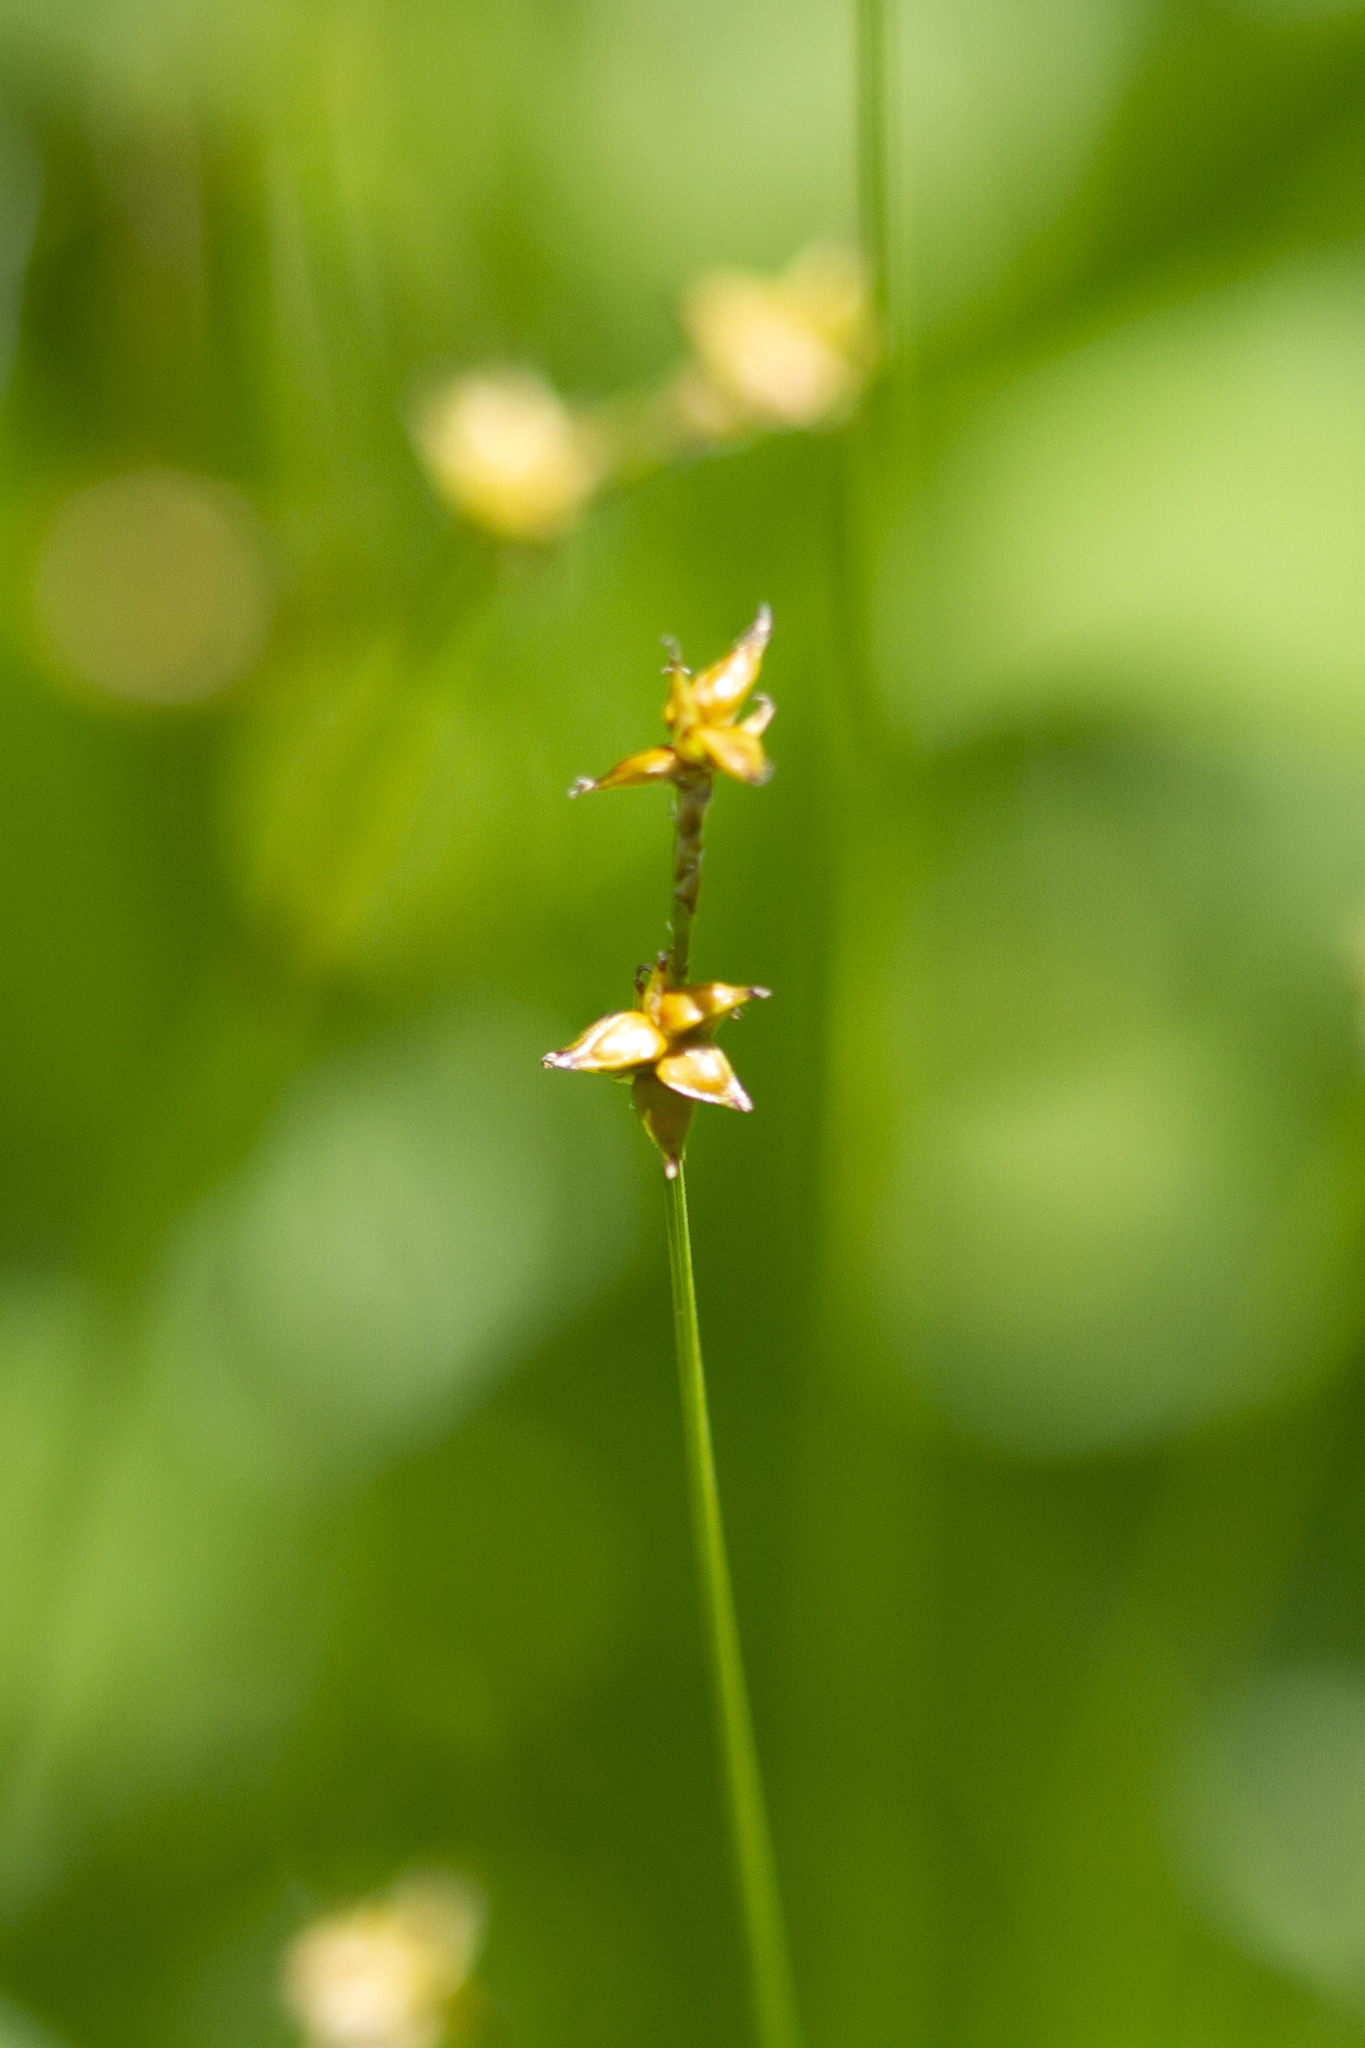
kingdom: Plantae
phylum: Tracheophyta
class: Liliopsida
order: Poales
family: Cyperaceae
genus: Carex
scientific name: Carex interior
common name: Inland sedge
